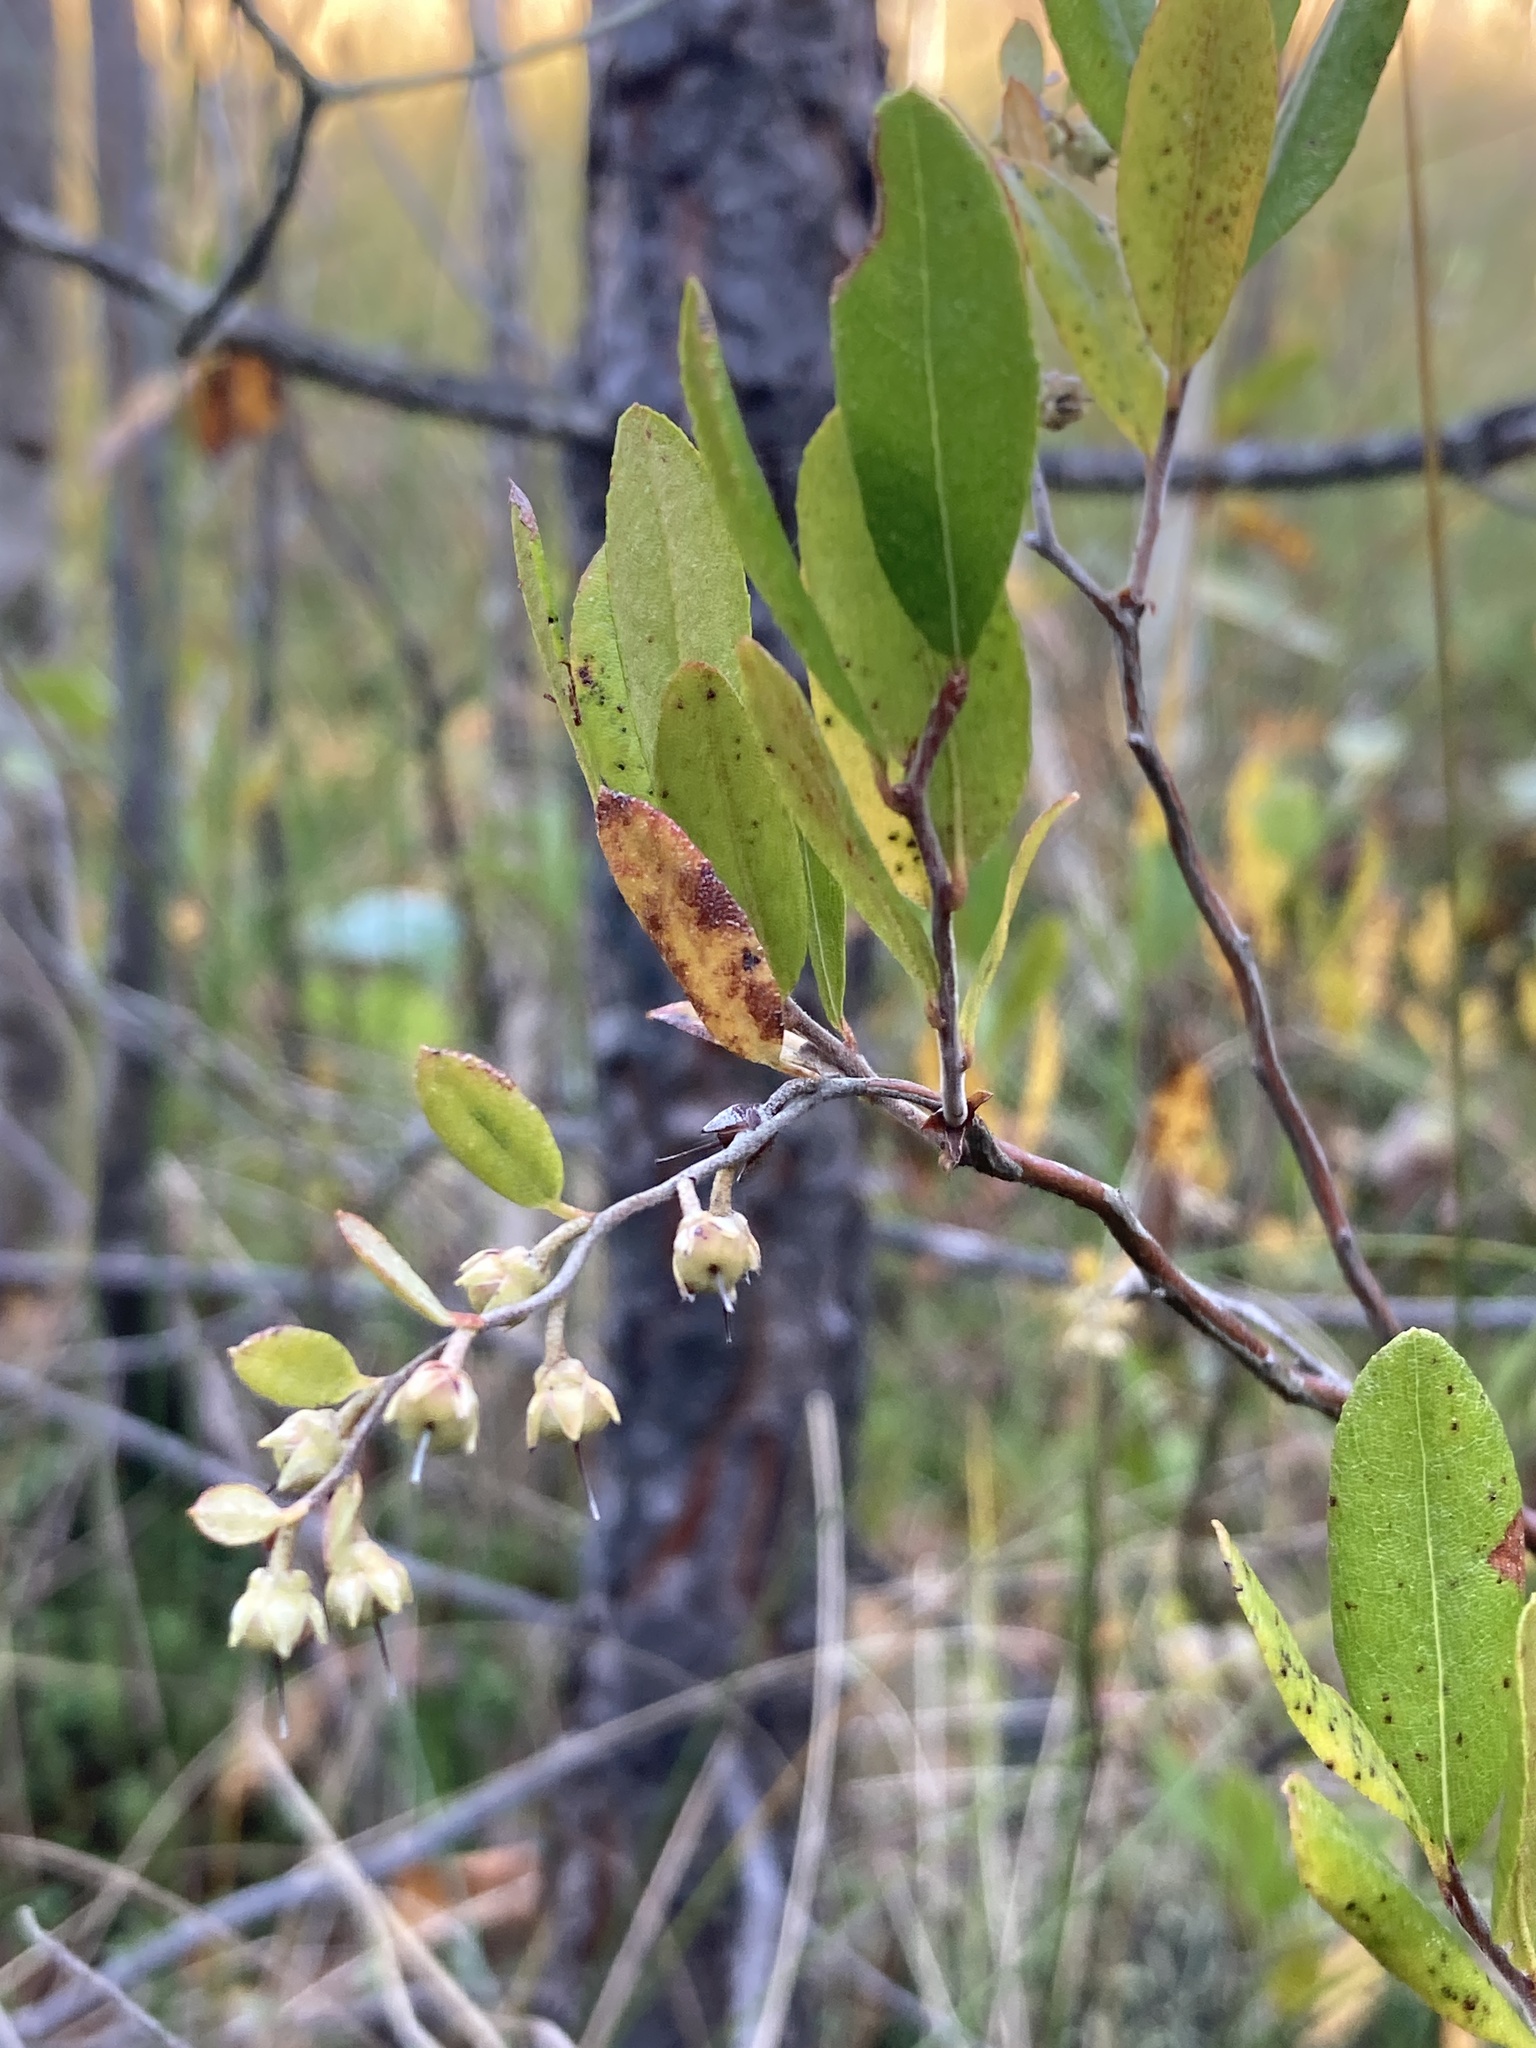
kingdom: Plantae
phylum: Tracheophyta
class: Magnoliopsida
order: Ericales
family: Ericaceae
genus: Chamaedaphne
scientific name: Chamaedaphne calyculata
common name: Leatherleaf
